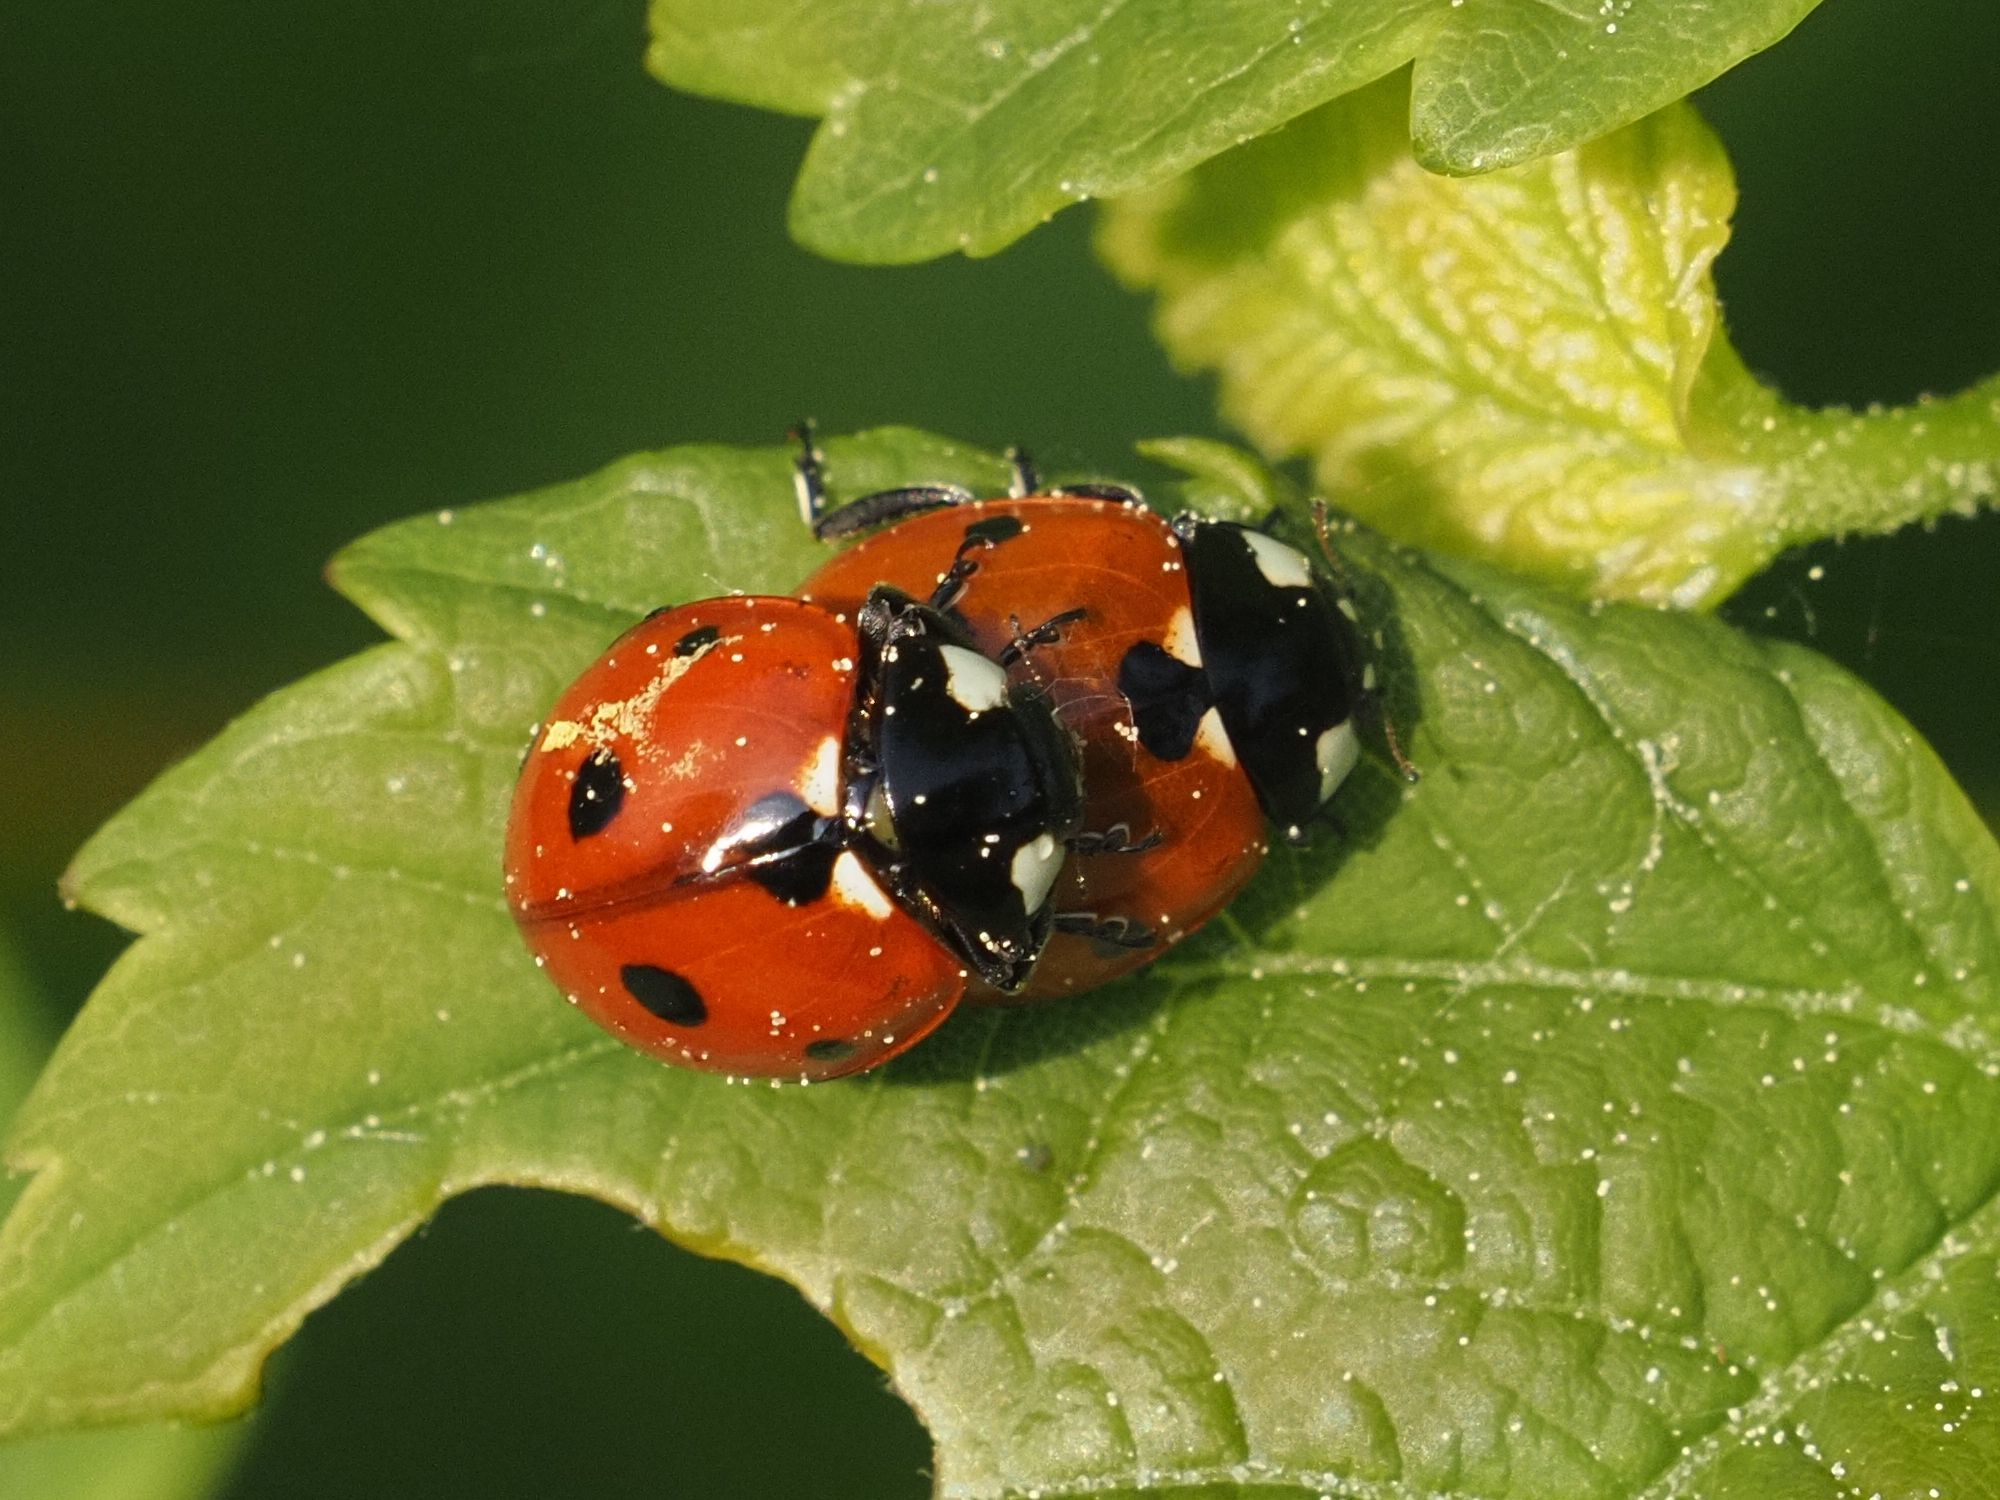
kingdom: Animalia
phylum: Arthropoda
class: Insecta
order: Coleoptera
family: Coccinellidae
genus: Coccinella
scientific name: Coccinella septempunctata
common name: Sevenspotted lady beetle
